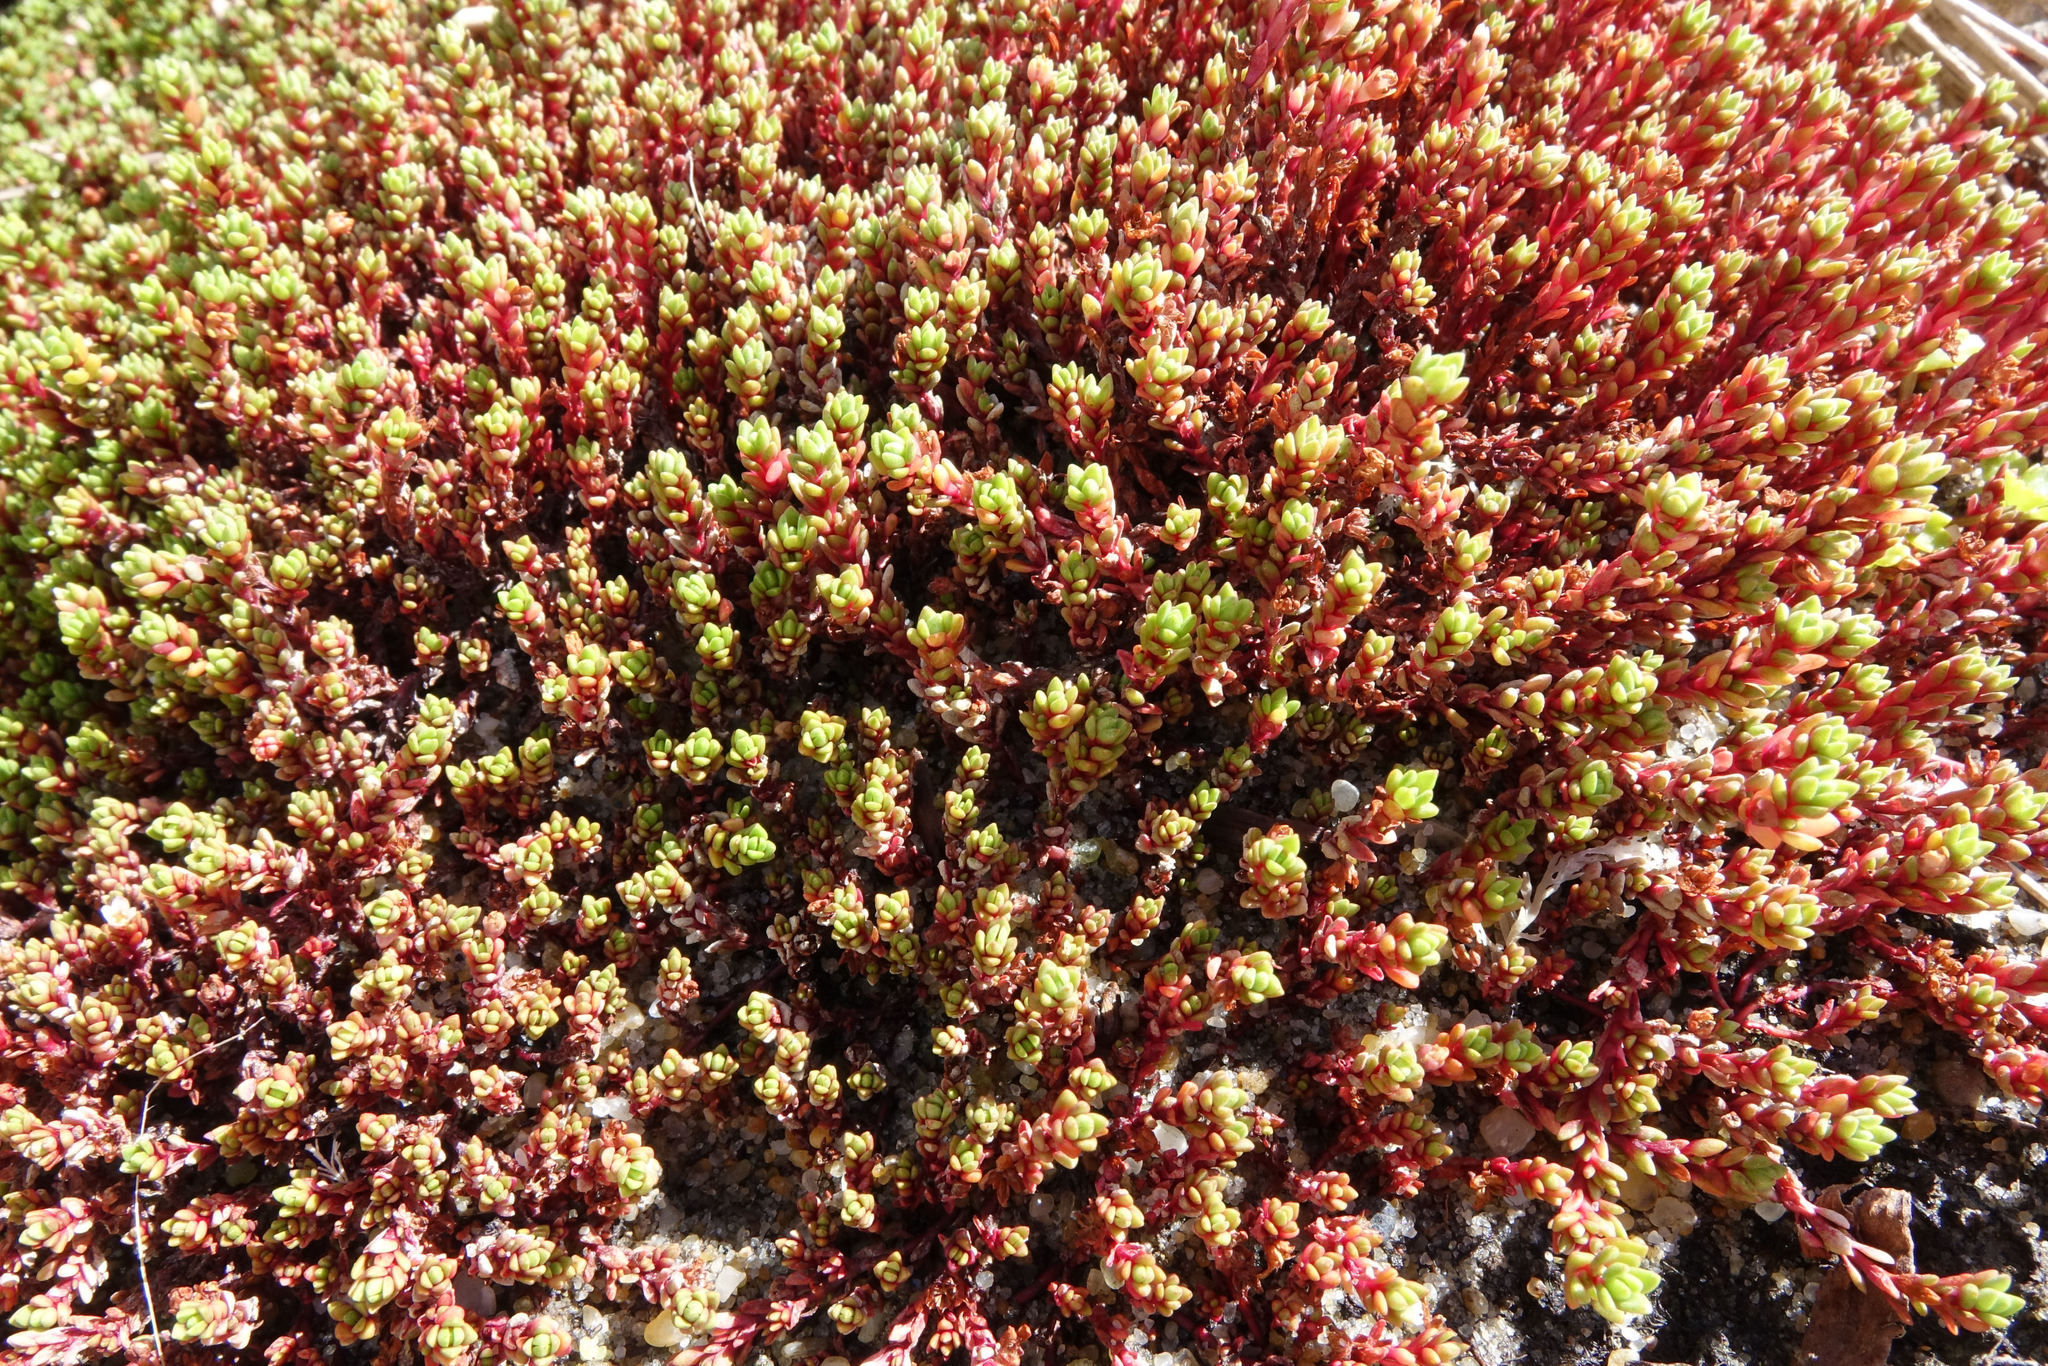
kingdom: Plantae
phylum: Tracheophyta
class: Magnoliopsida
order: Saxifragales
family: Crassulaceae
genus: Crassula
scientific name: Crassula moschata
